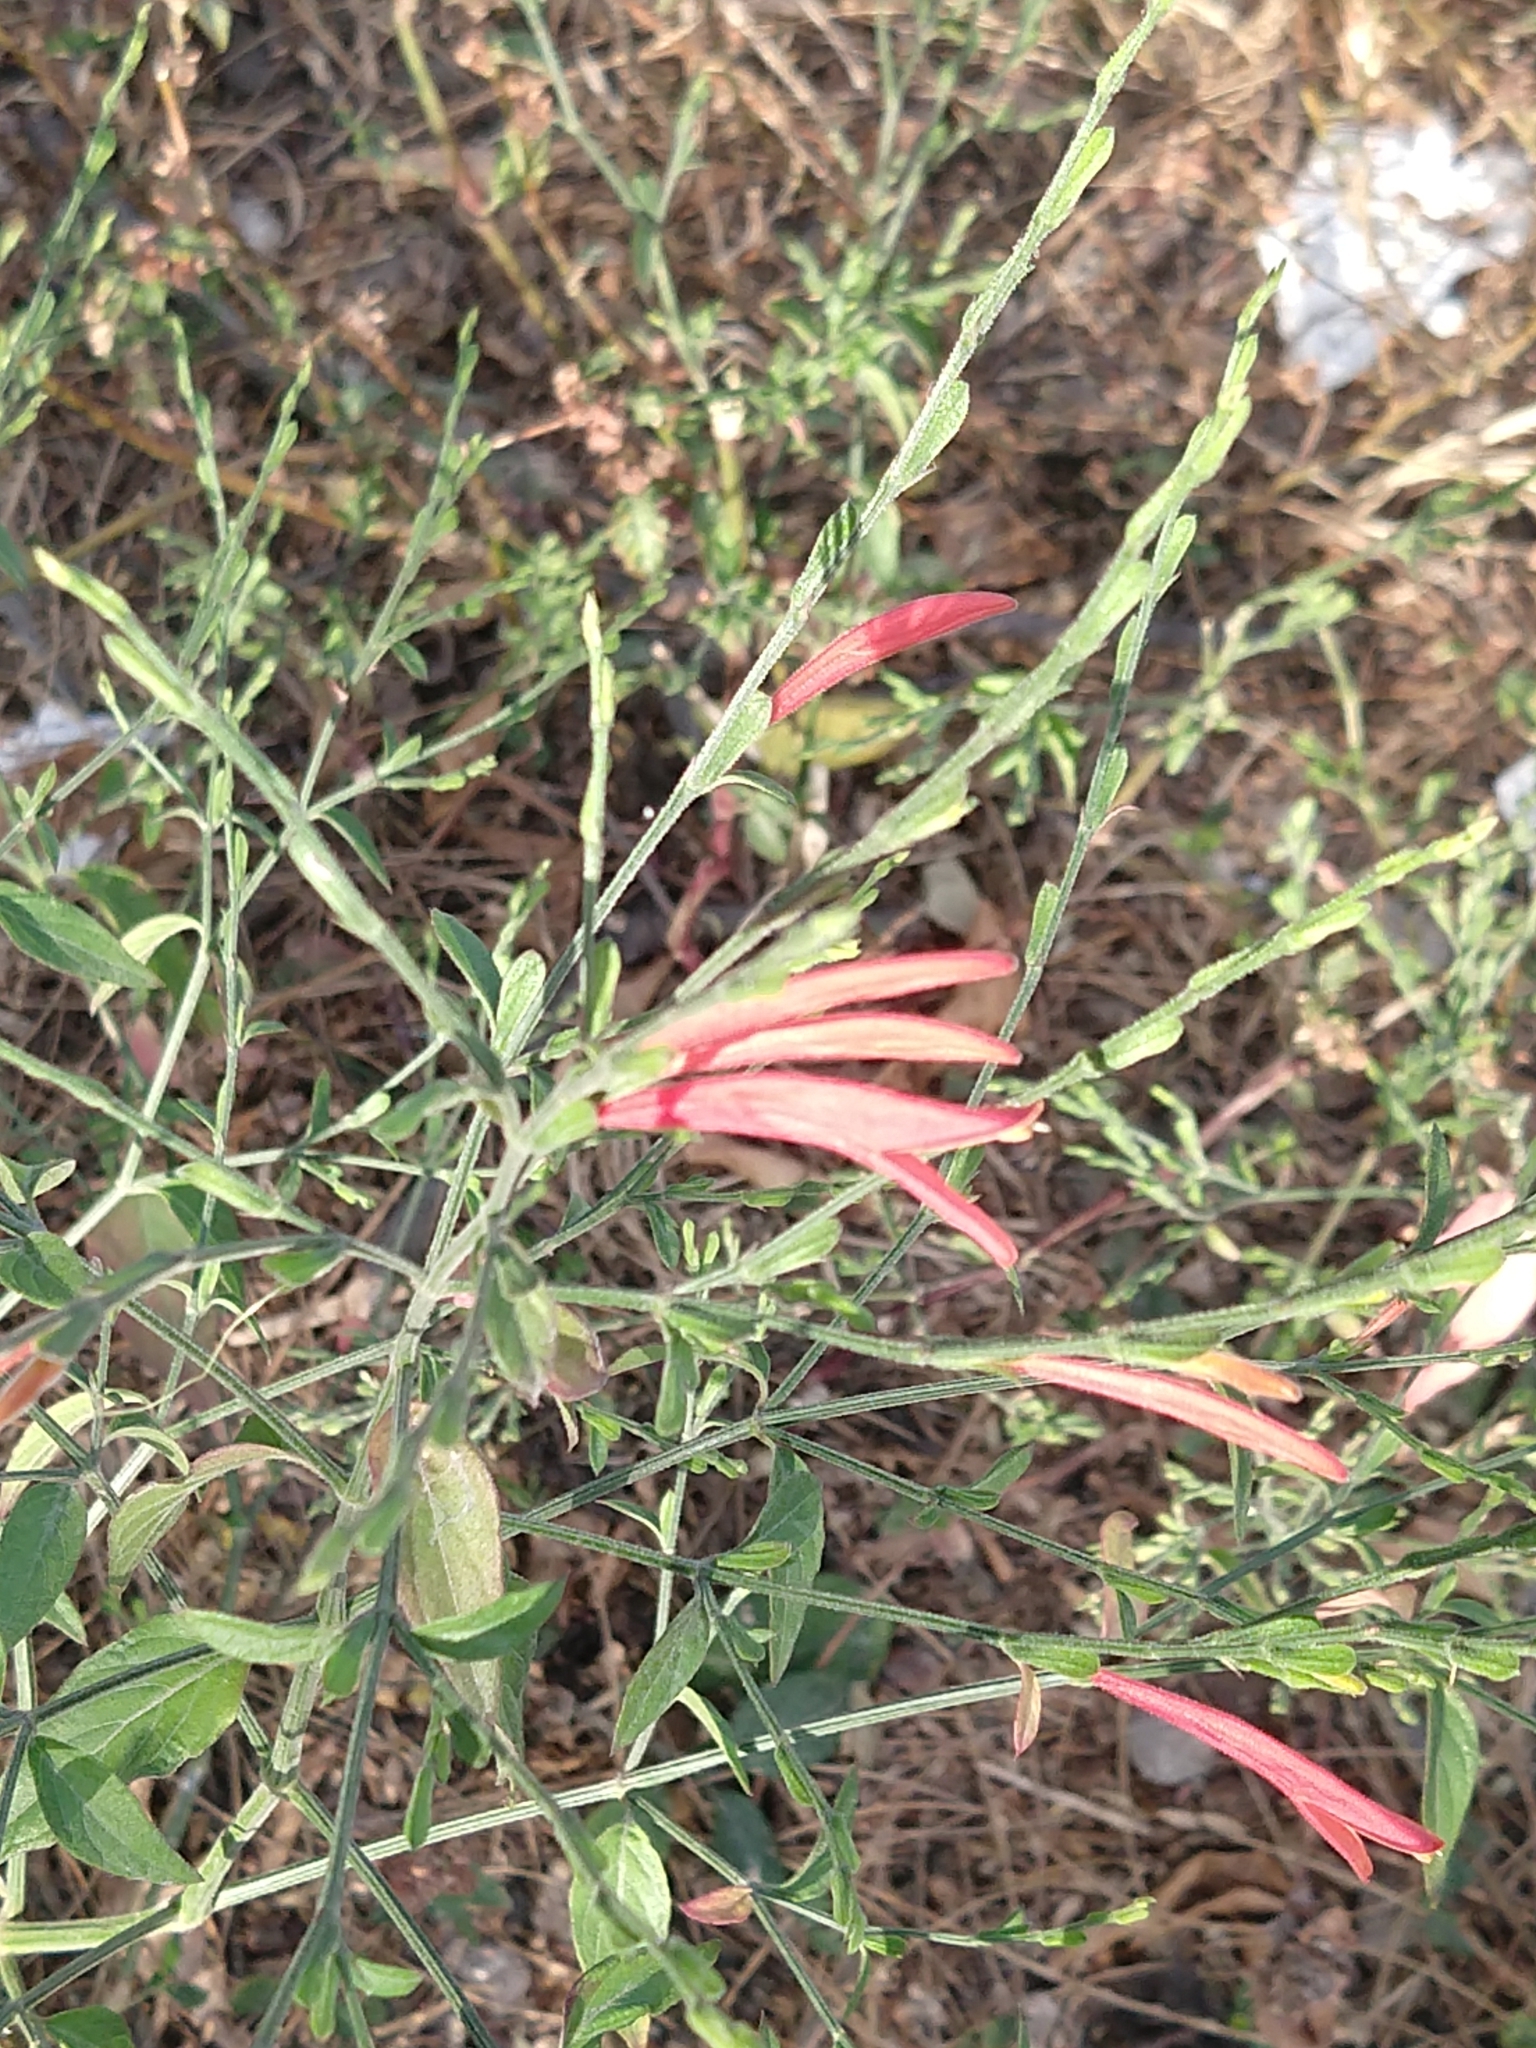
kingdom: Plantae
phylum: Tracheophyta
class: Magnoliopsida
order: Lamiales
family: Acanthaceae
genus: Dicliptera
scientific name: Dicliptera sexangularis
